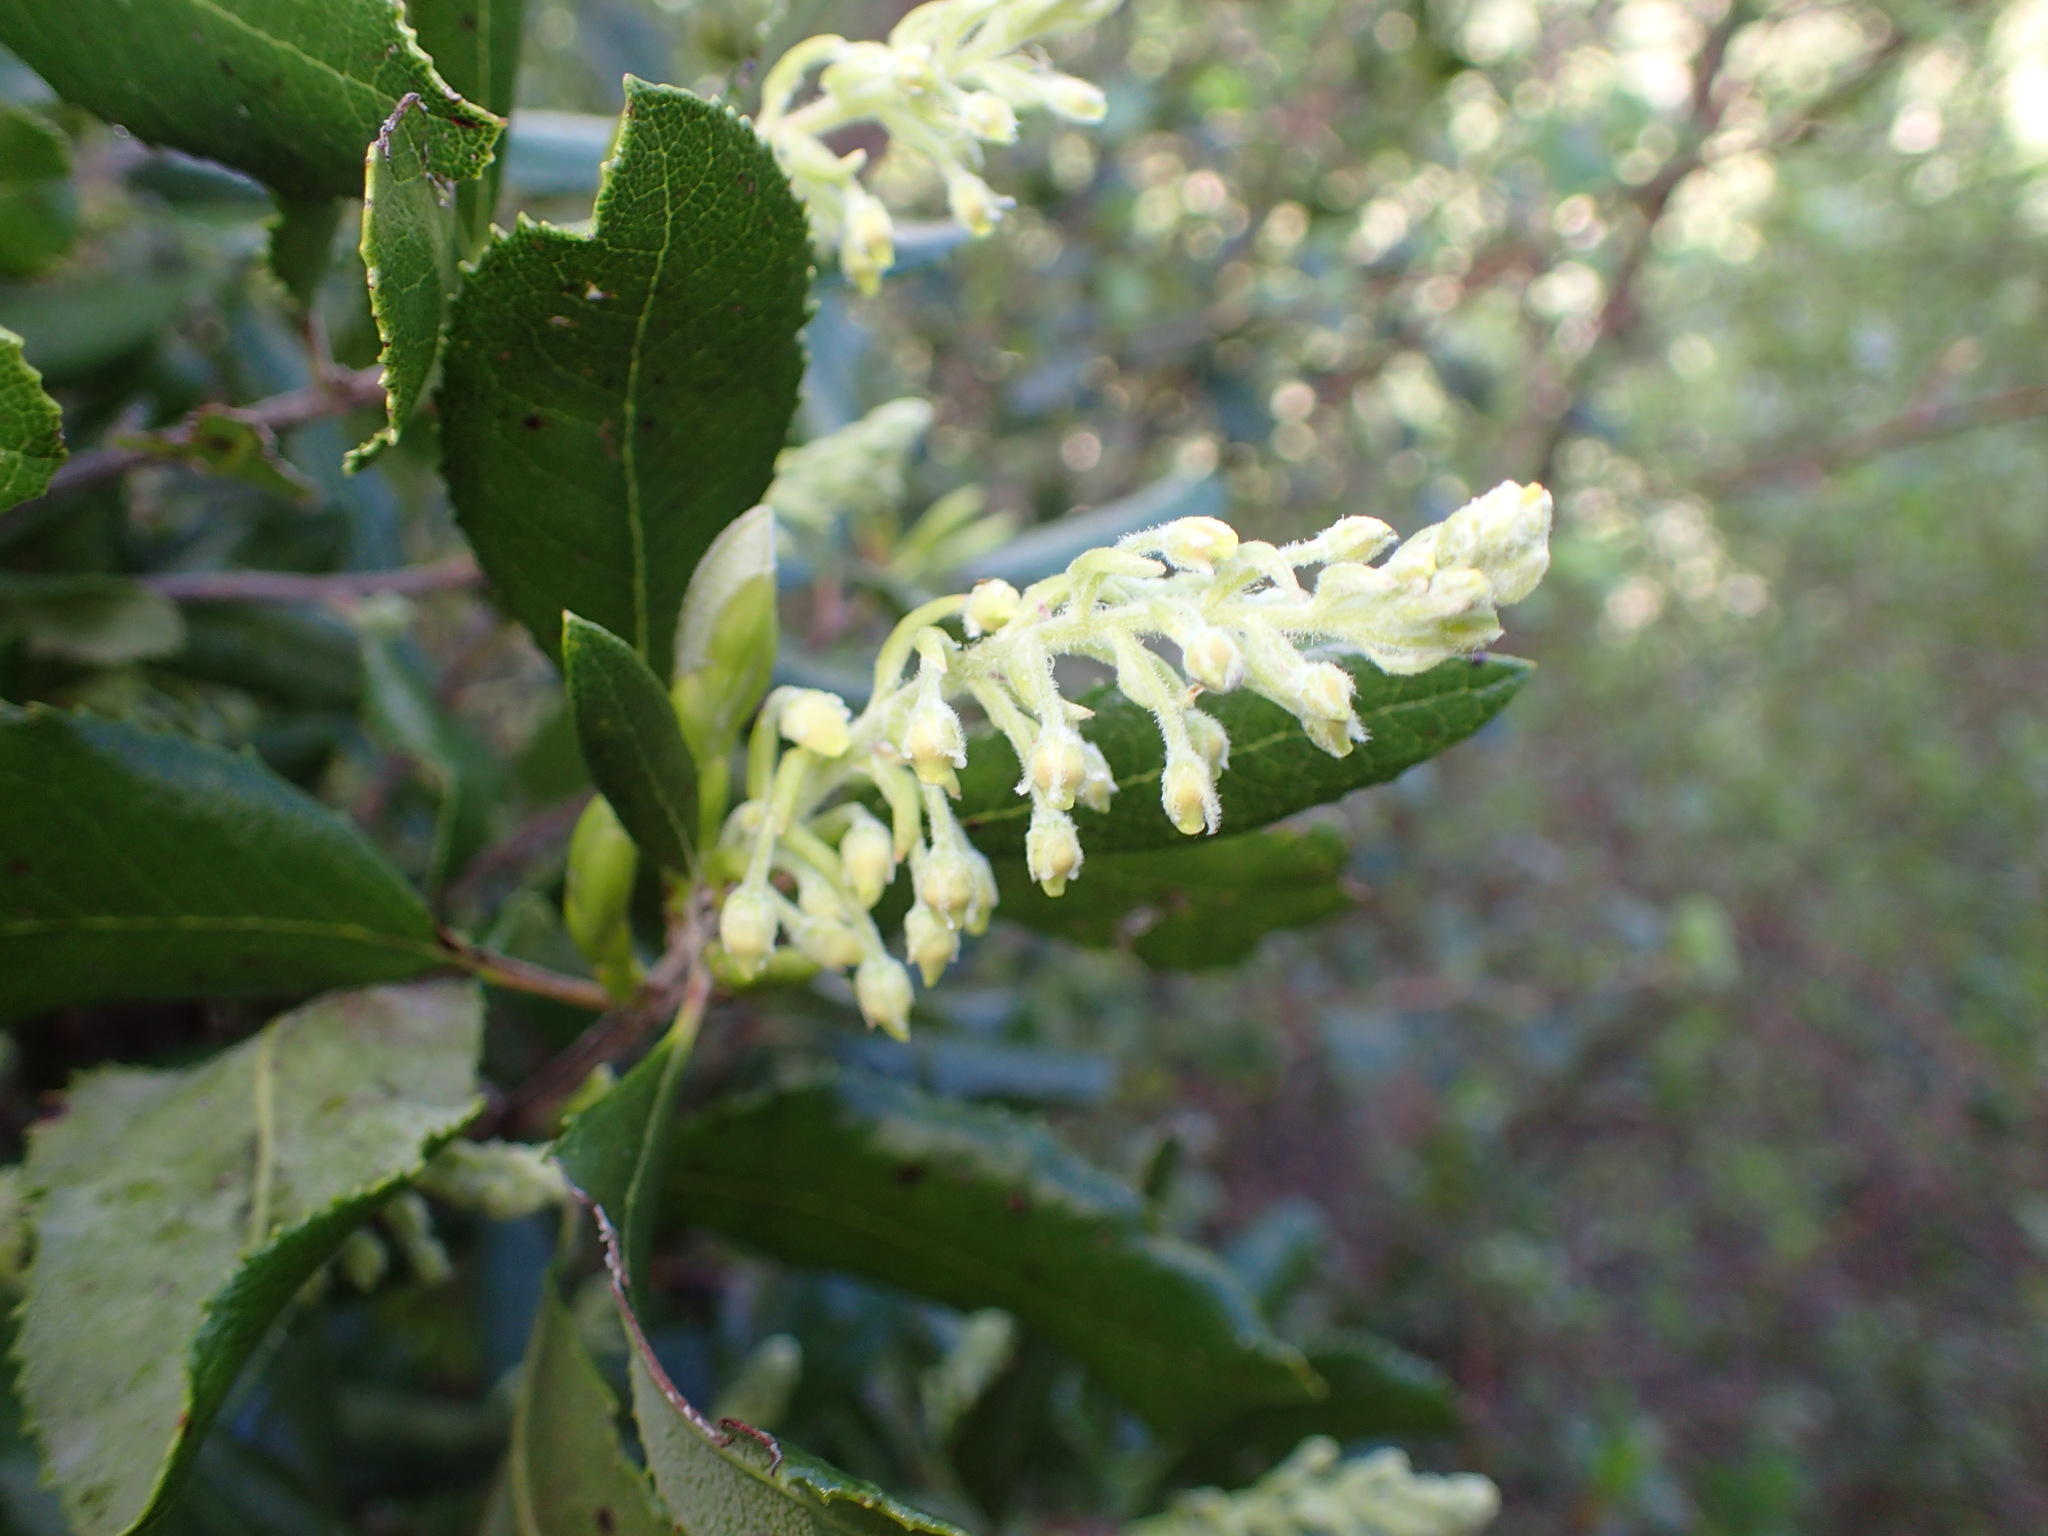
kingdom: Plantae
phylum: Tracheophyta
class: Magnoliopsida
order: Ericales
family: Ericaceae
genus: Comarostaphylis
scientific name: Comarostaphylis diversifolia
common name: Summer-holly
